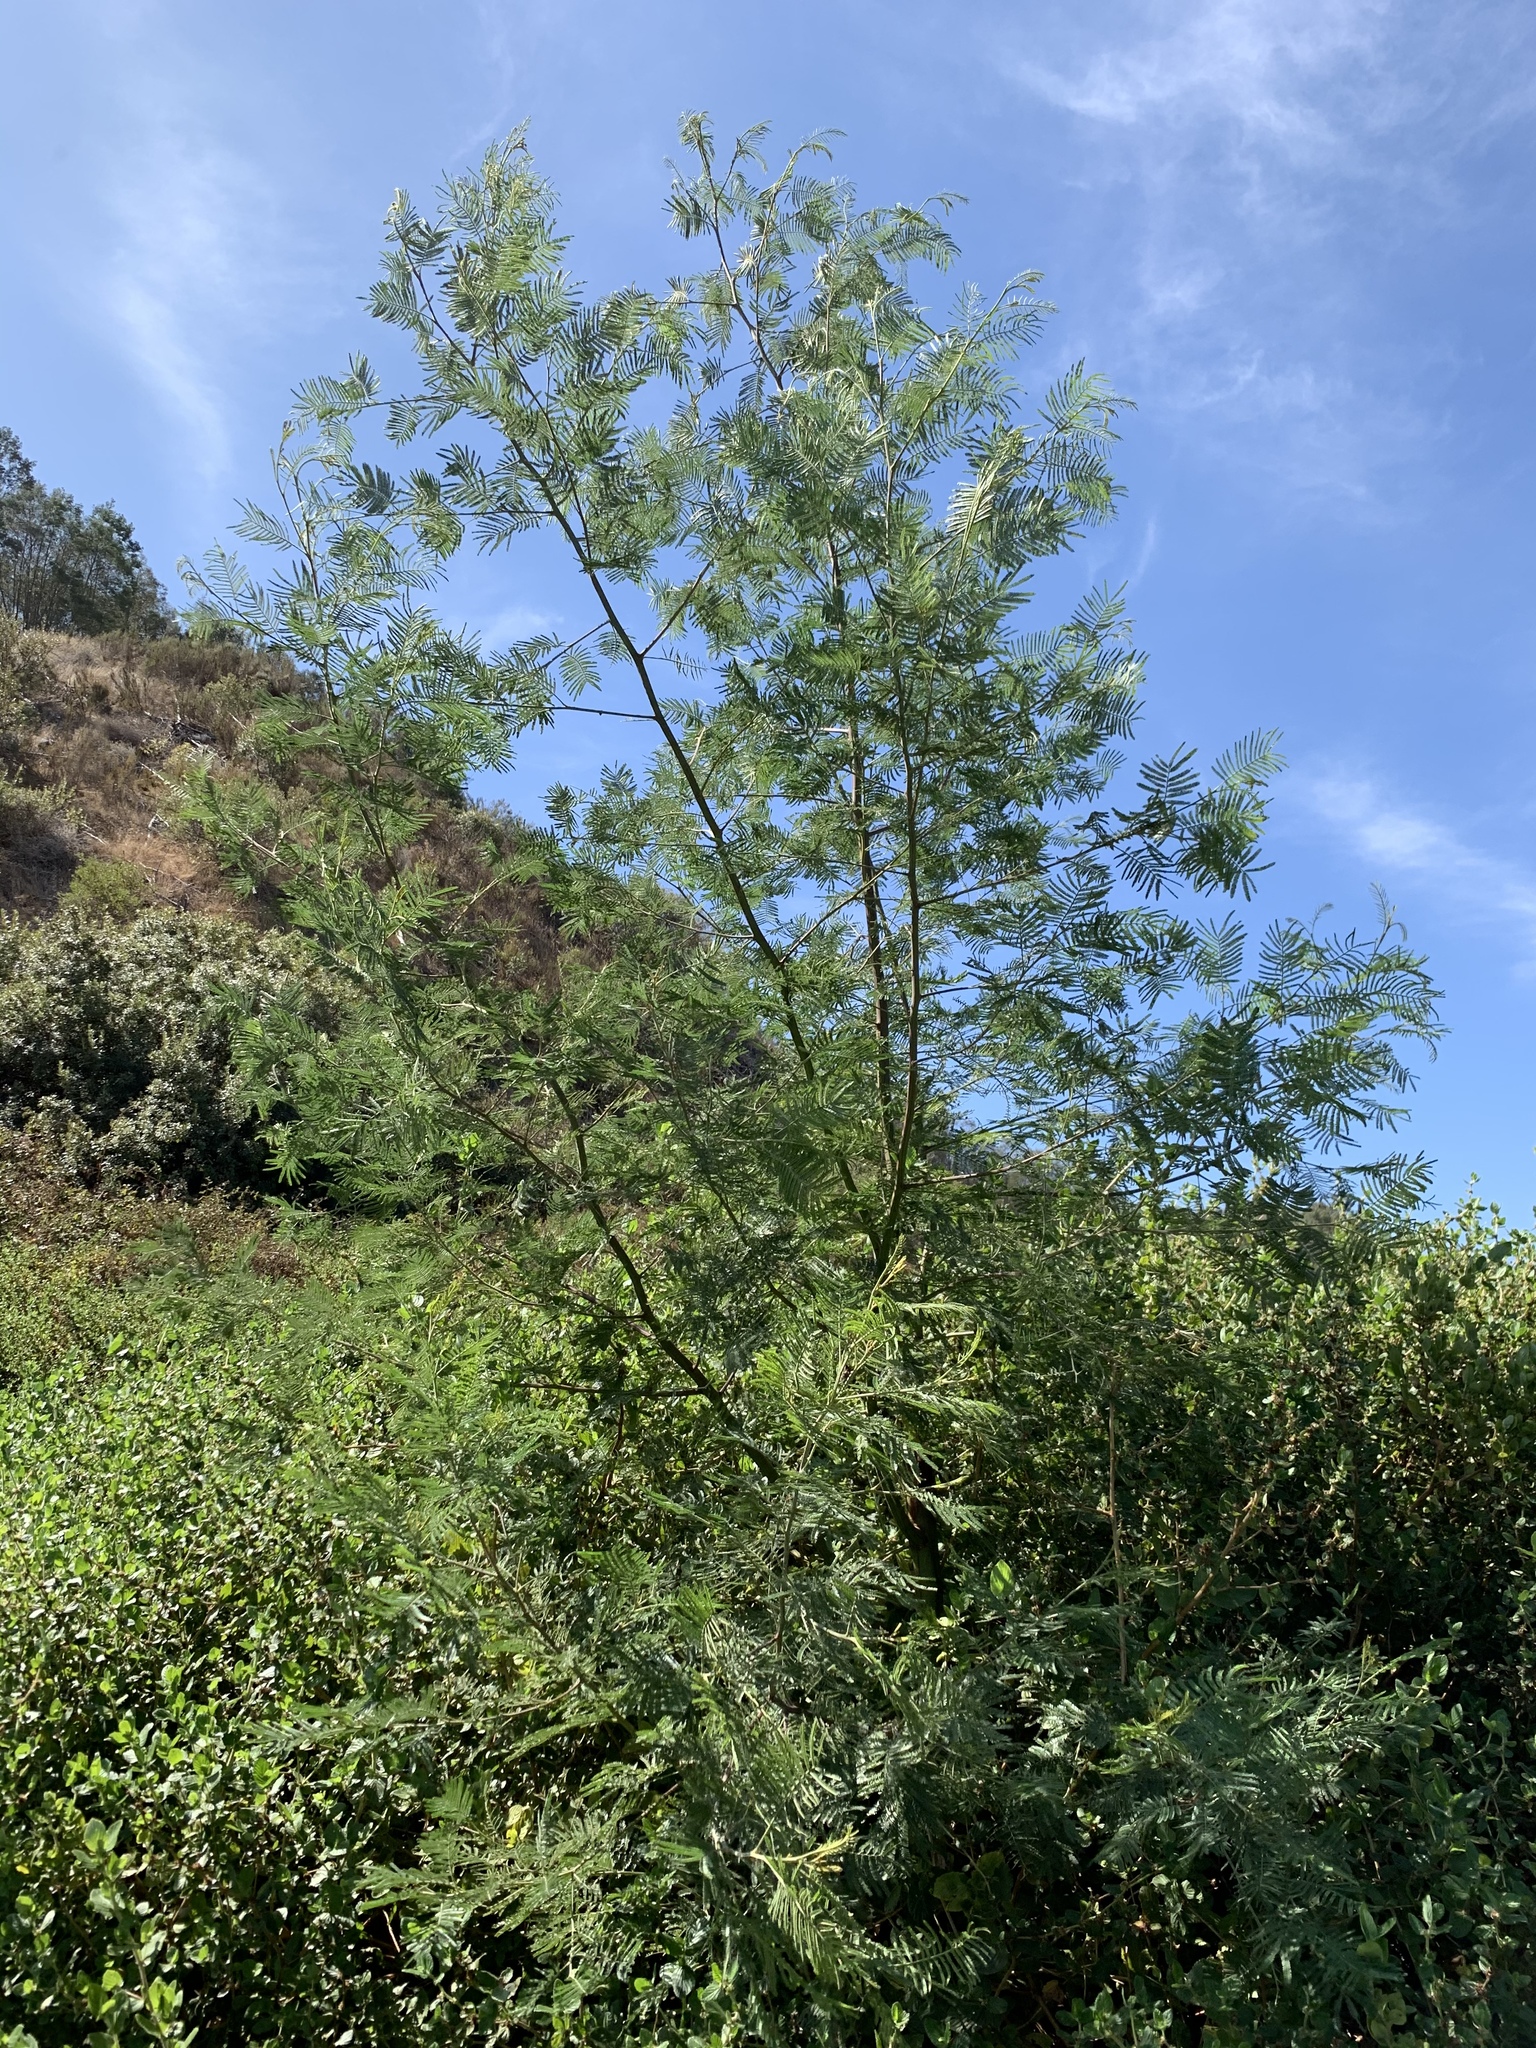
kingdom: Plantae
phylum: Tracheophyta
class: Magnoliopsida
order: Fabales
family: Fabaceae
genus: Acacia
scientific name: Acacia mearnsii
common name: Black wattle
